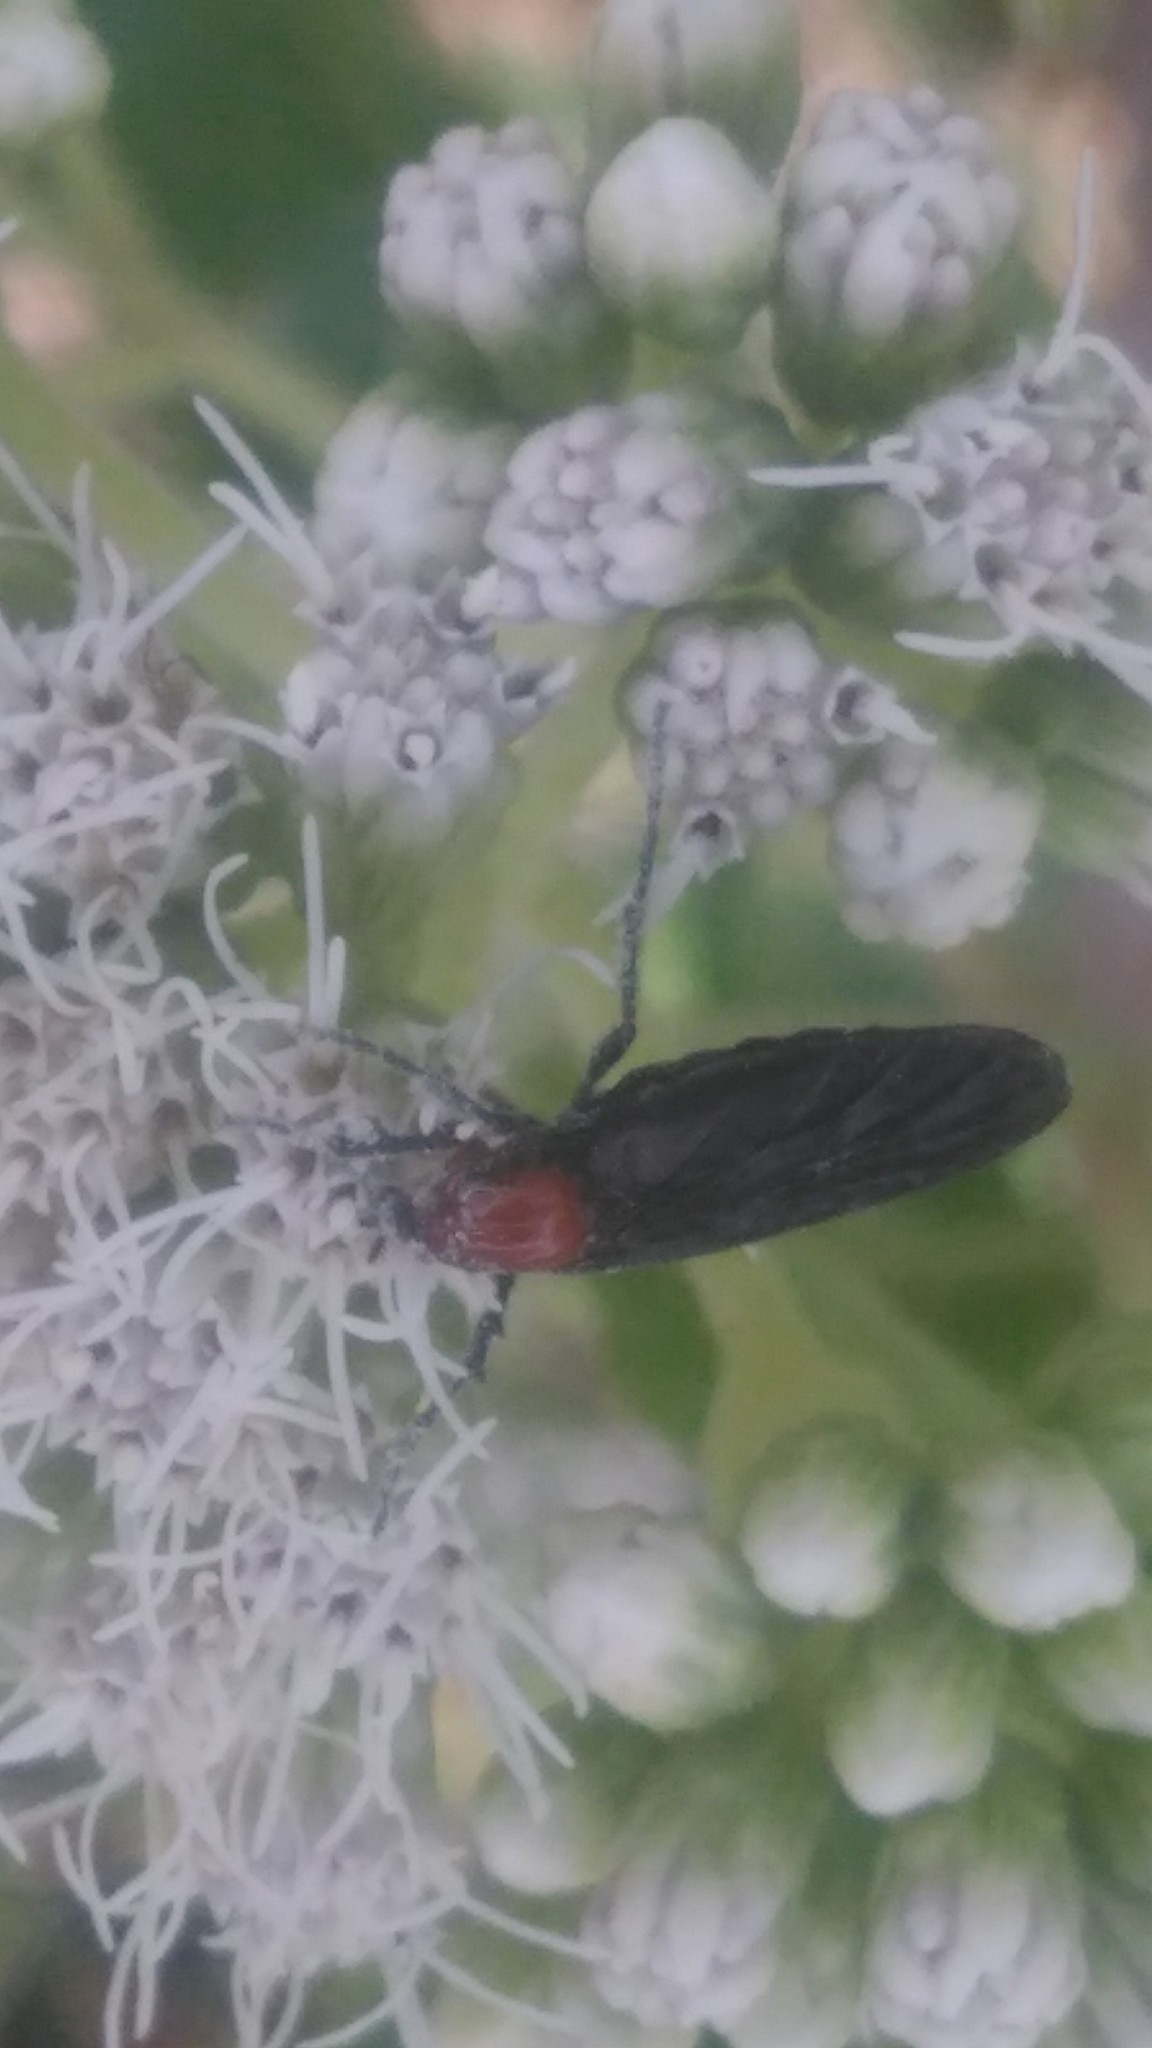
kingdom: Animalia
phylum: Arthropoda
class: Insecta
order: Diptera
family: Bibionidae
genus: Dilophus
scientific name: Dilophus pectoralis
